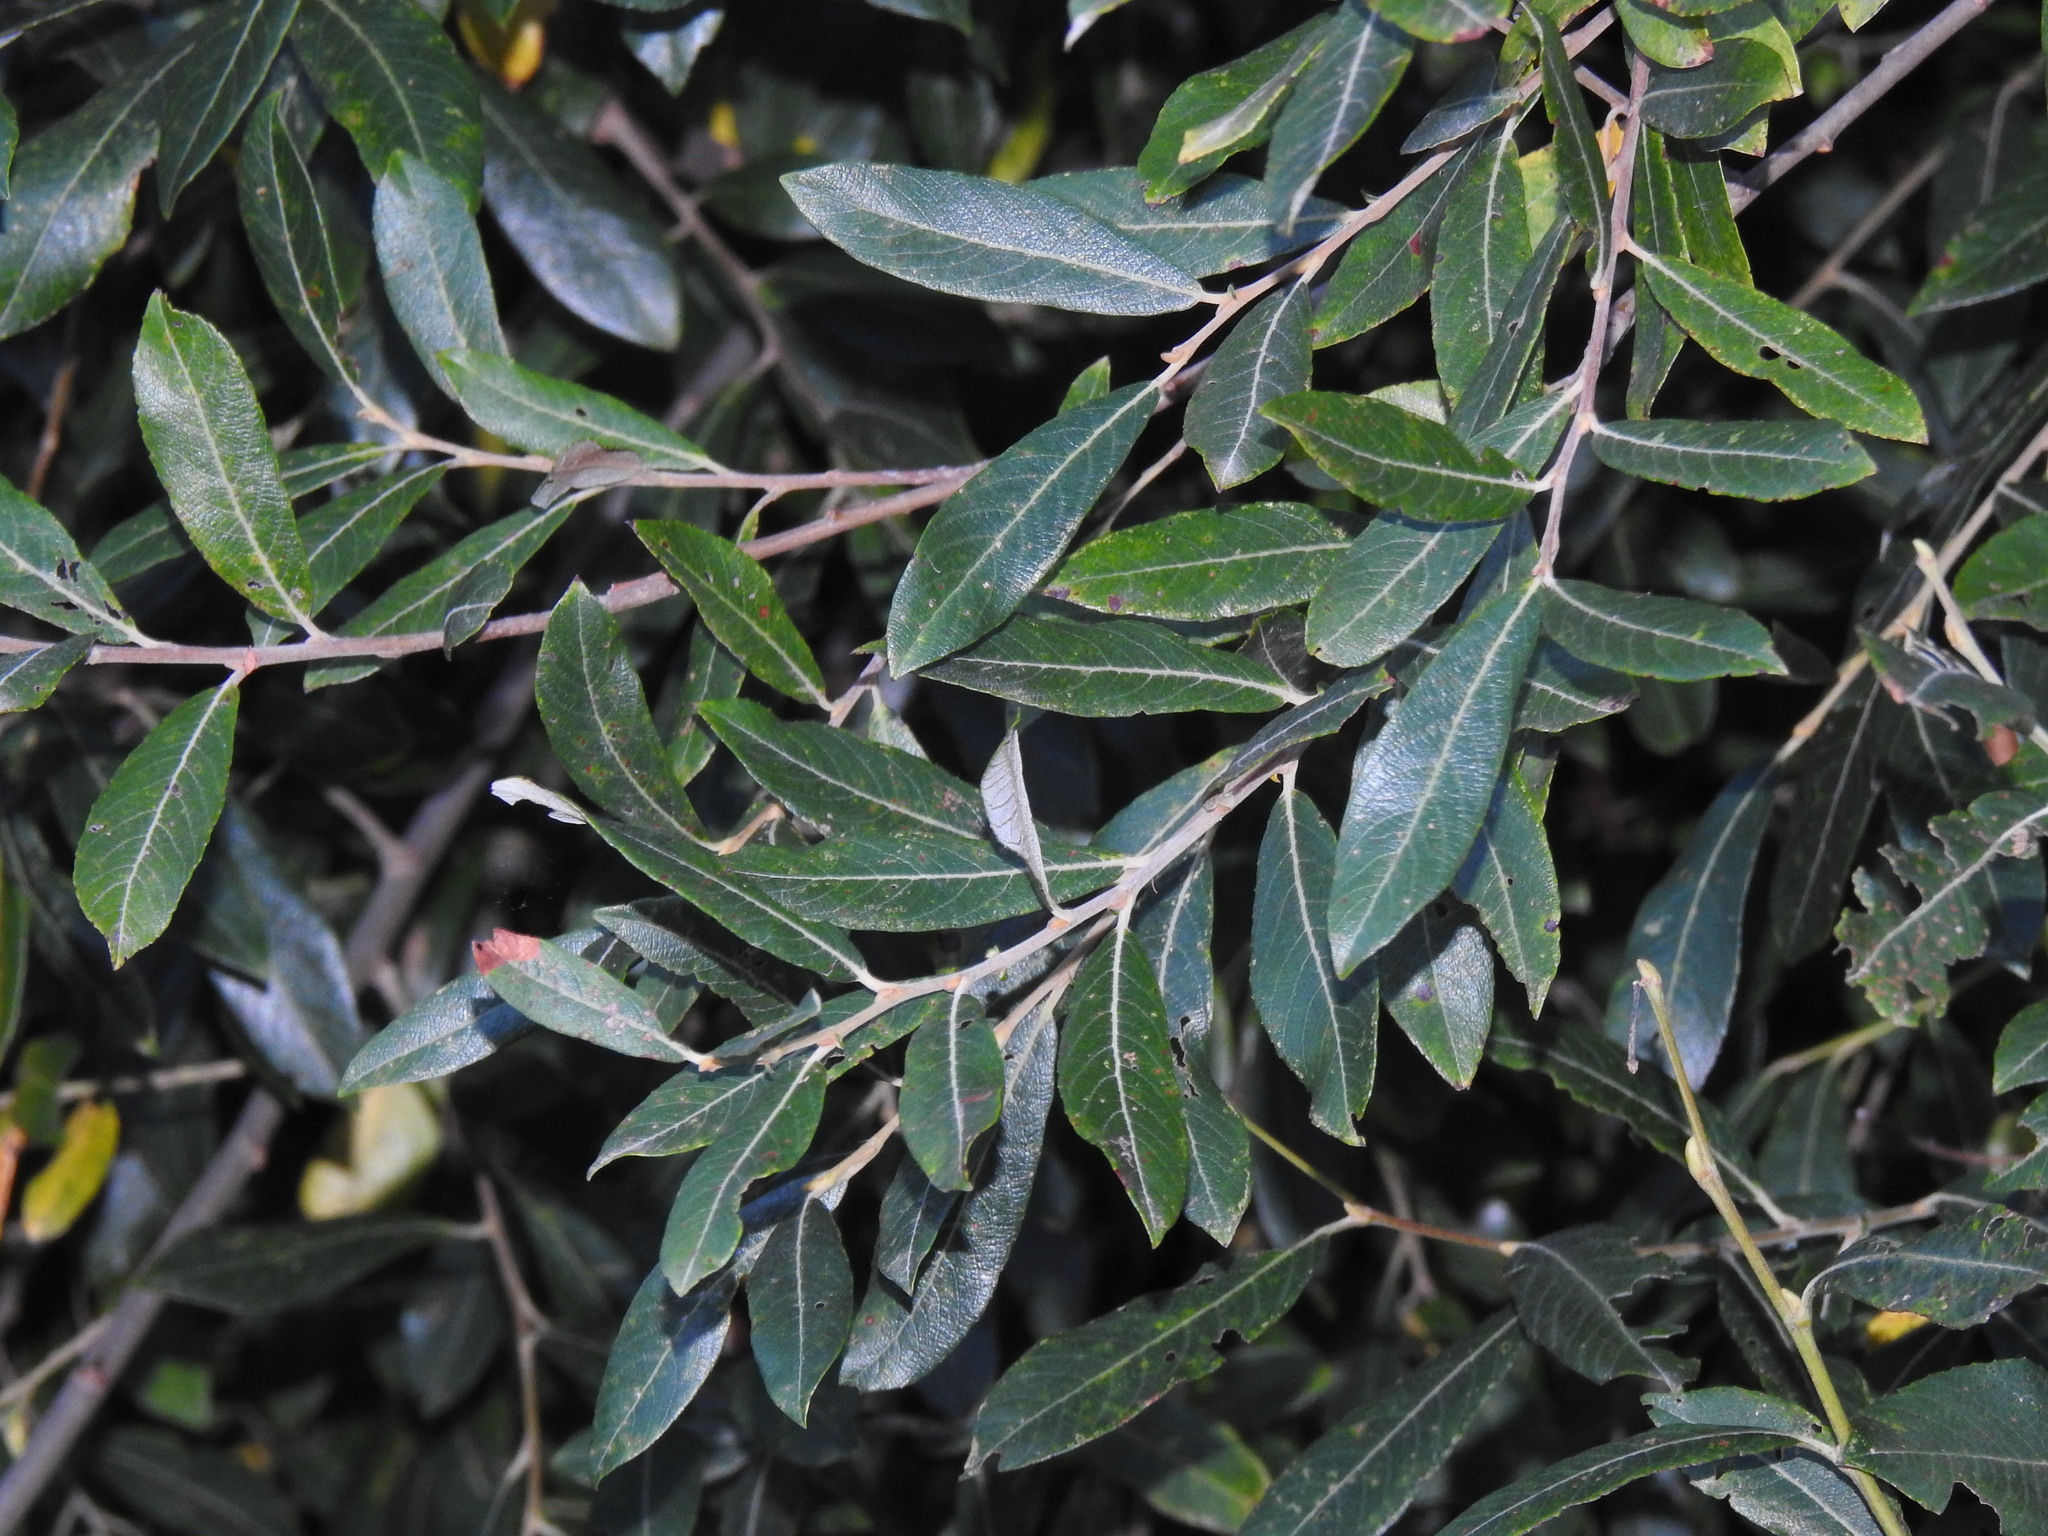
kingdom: Plantae
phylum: Tracheophyta
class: Magnoliopsida
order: Malpighiales
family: Salicaceae
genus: Salix
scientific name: Salix atrocinerea
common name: Rusty willow
